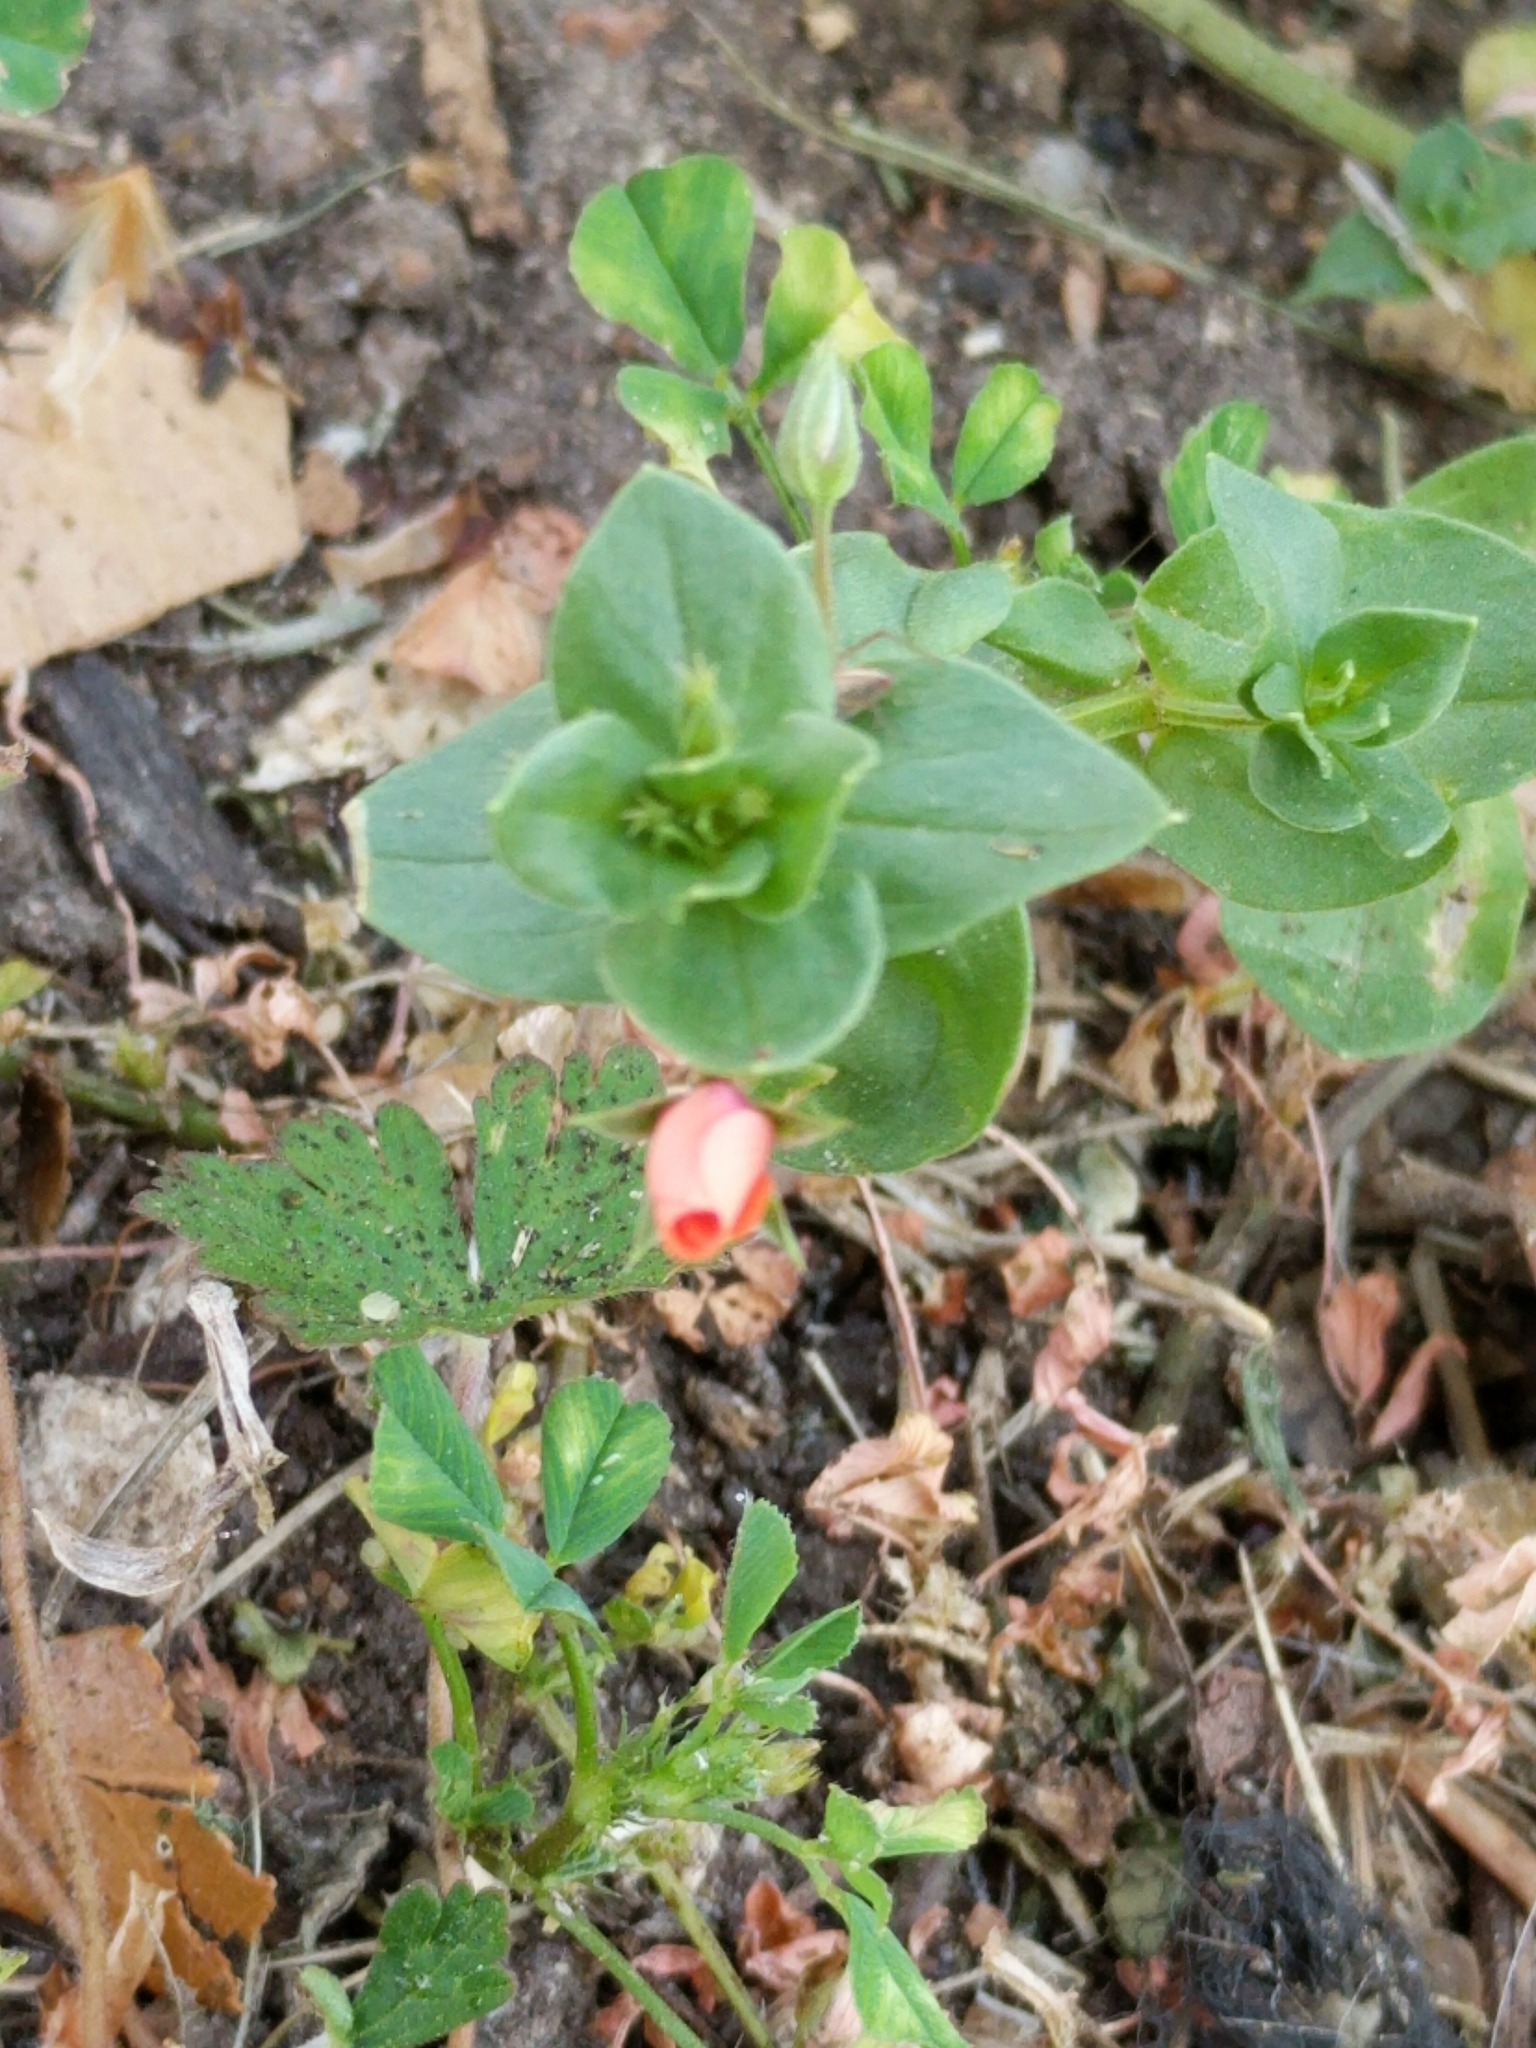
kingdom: Plantae
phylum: Tracheophyta
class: Magnoliopsida
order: Ericales
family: Primulaceae
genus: Lysimachia
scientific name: Lysimachia arvensis
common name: Scarlet pimpernel
